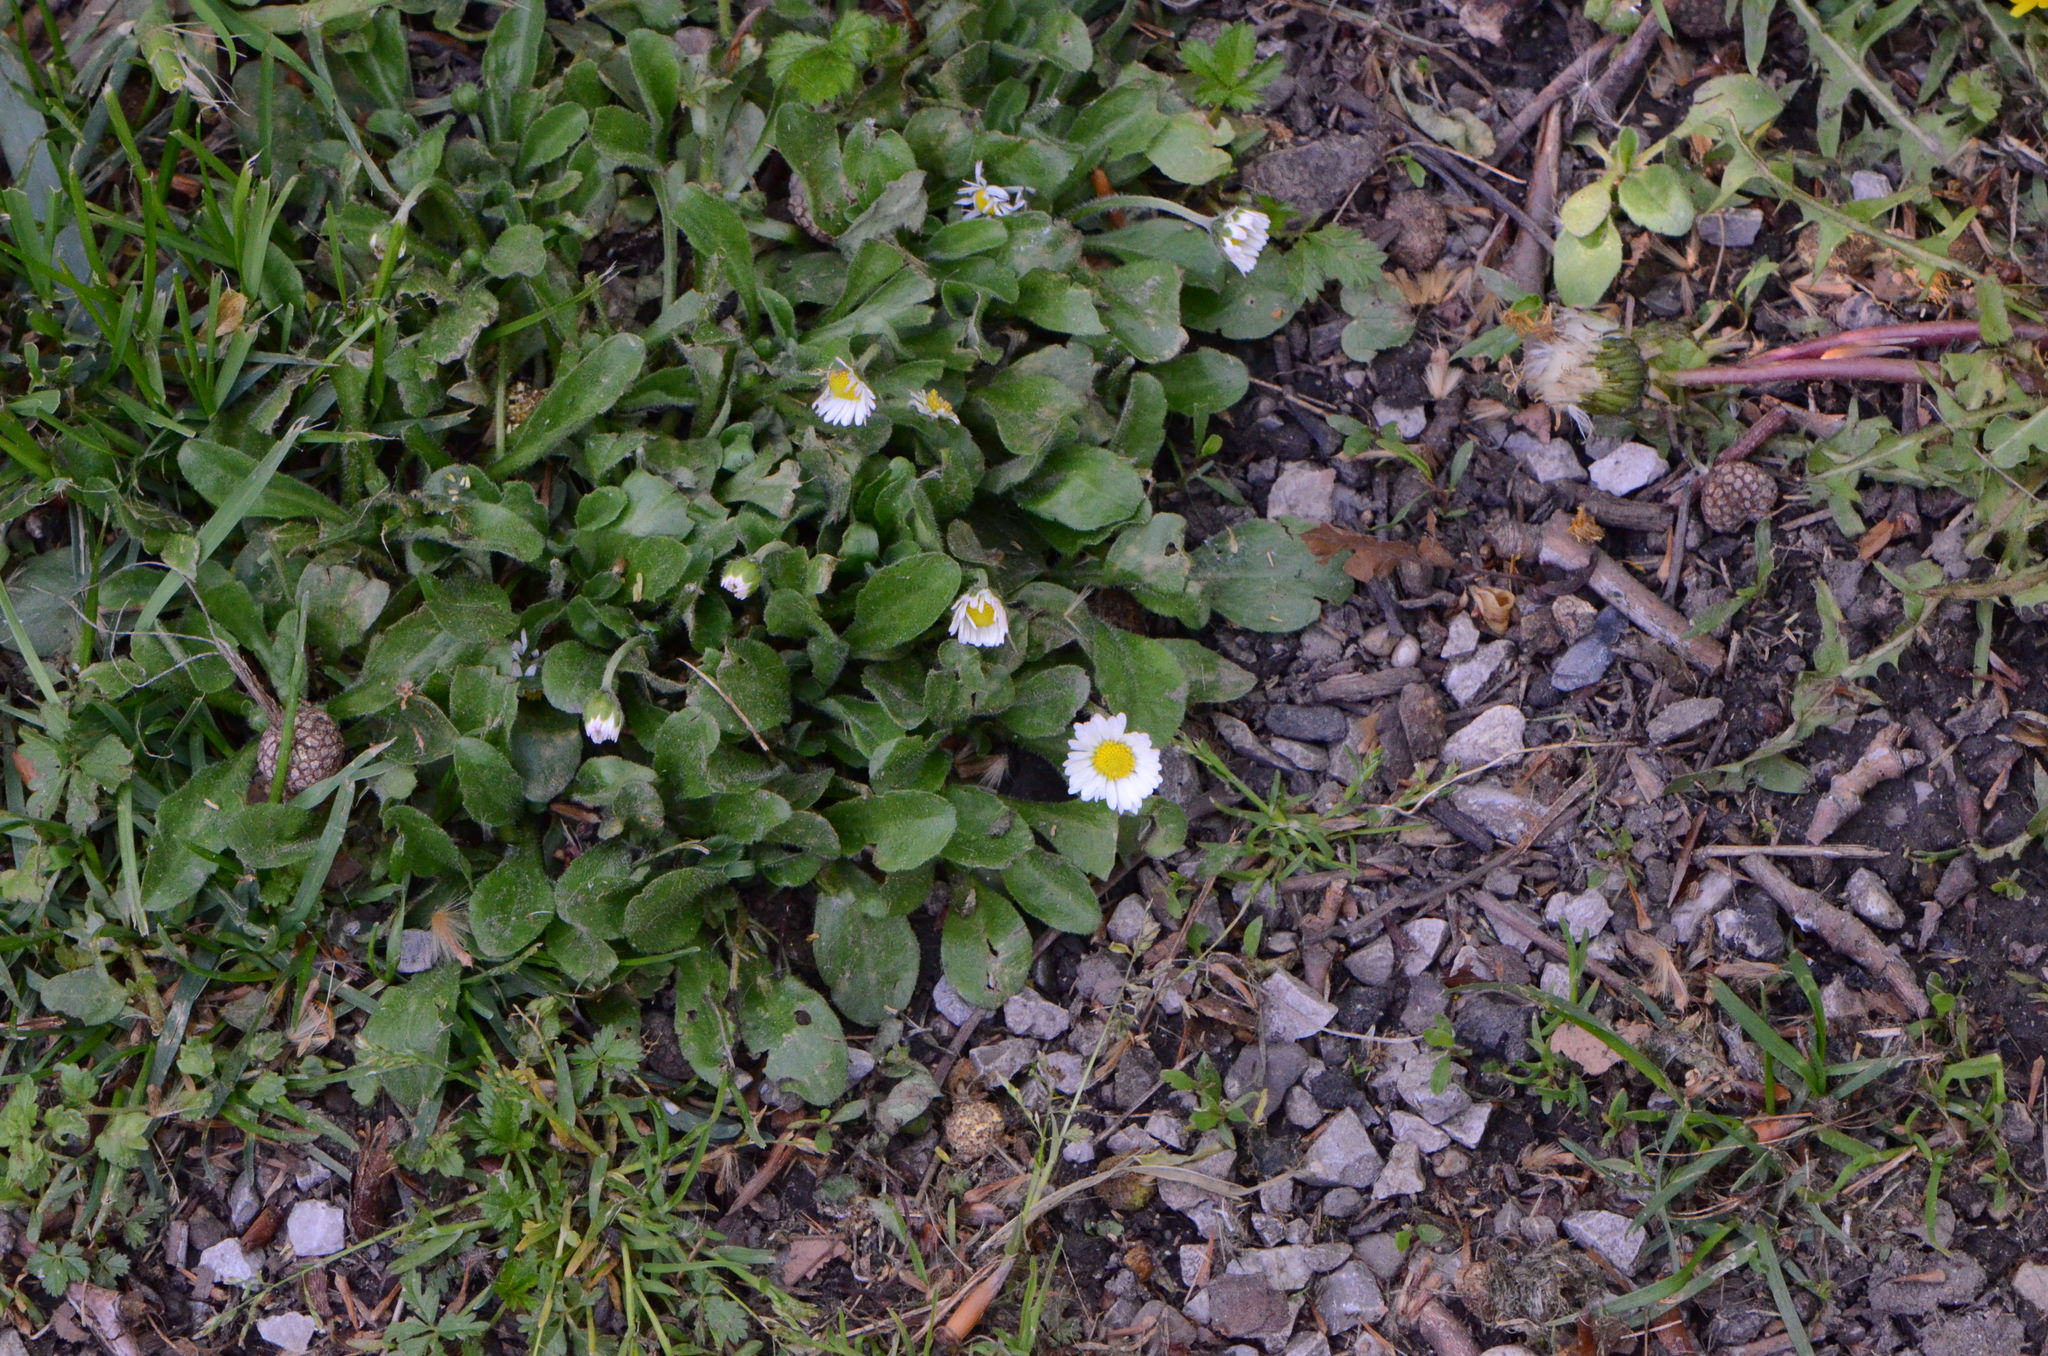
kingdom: Plantae
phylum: Tracheophyta
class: Magnoliopsida
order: Asterales
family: Asteraceae
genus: Bellis
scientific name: Bellis perennis
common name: Lawndaisy
